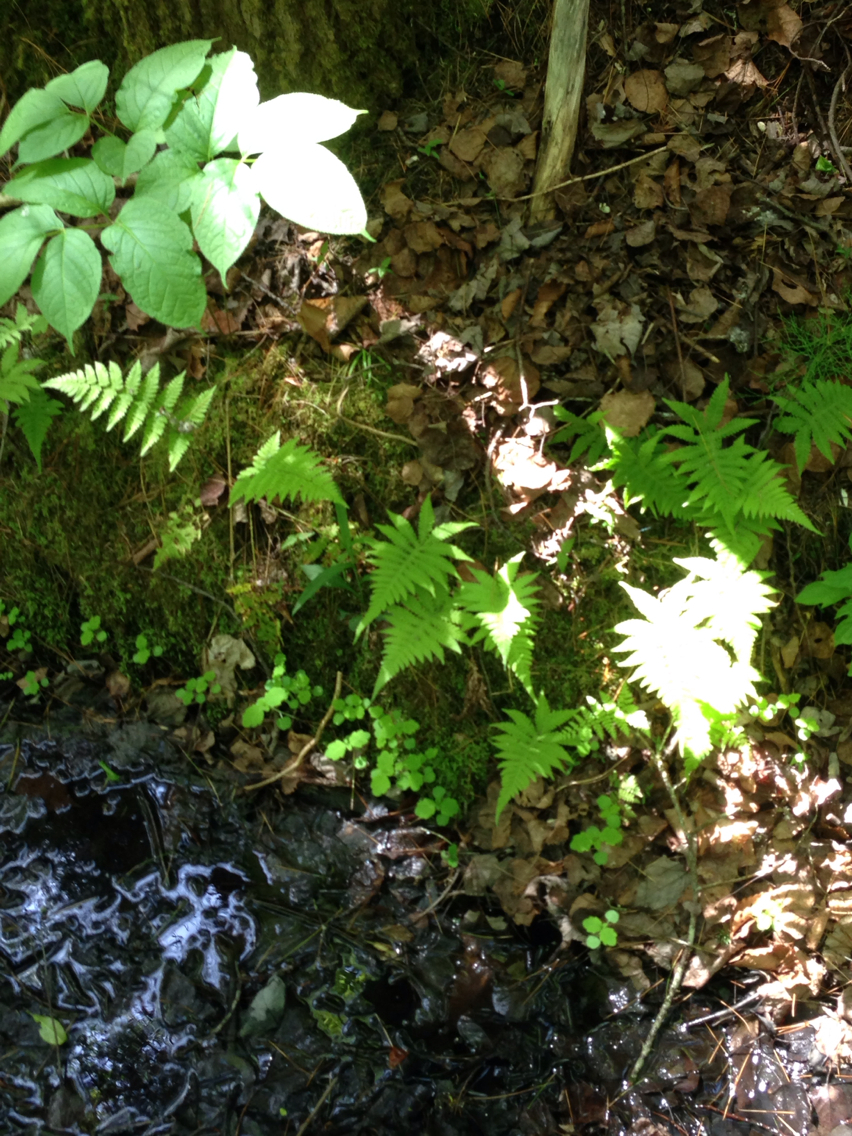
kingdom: Plantae
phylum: Tracheophyta
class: Polypodiopsida
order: Polypodiales
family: Thelypteridaceae
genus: Phegopteris
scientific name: Phegopteris connectilis
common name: Beech fern
